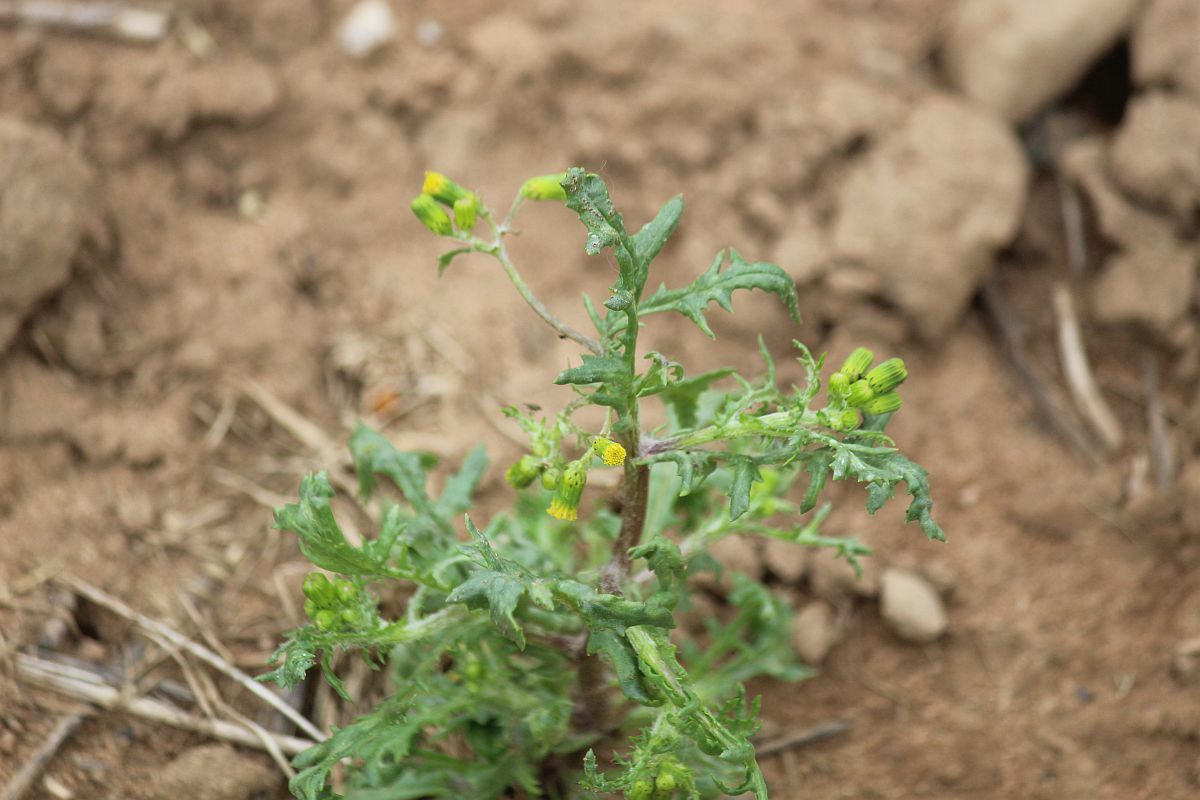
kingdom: Plantae
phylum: Tracheophyta
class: Magnoliopsida
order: Asterales
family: Asteraceae
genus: Senecio
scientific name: Senecio vulgaris
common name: Old-man-in-the-spring
